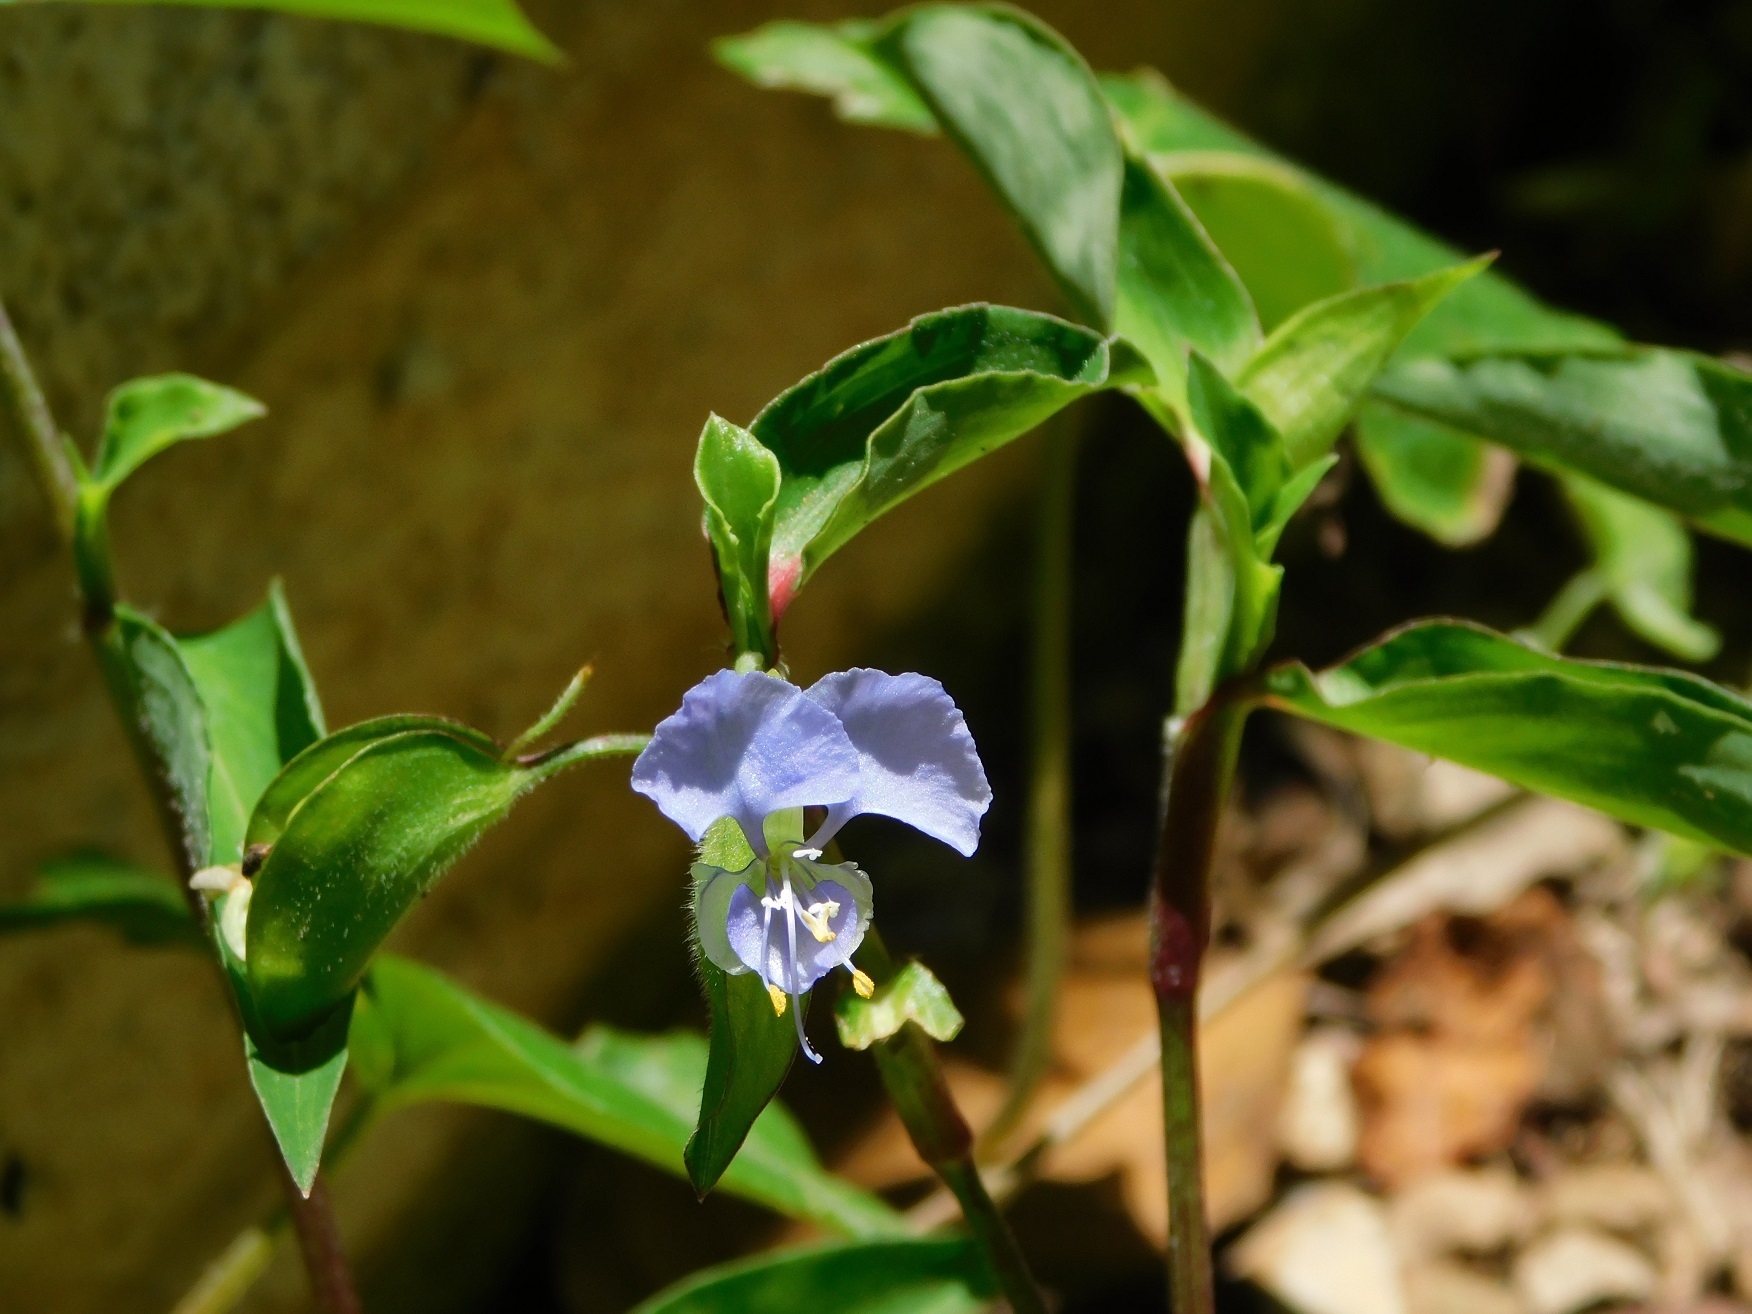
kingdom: Plantae
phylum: Tracheophyta
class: Liliopsida
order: Commelinales
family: Commelinaceae
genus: Commelina
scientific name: Commelina diffusa
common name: Climbing dayflower
